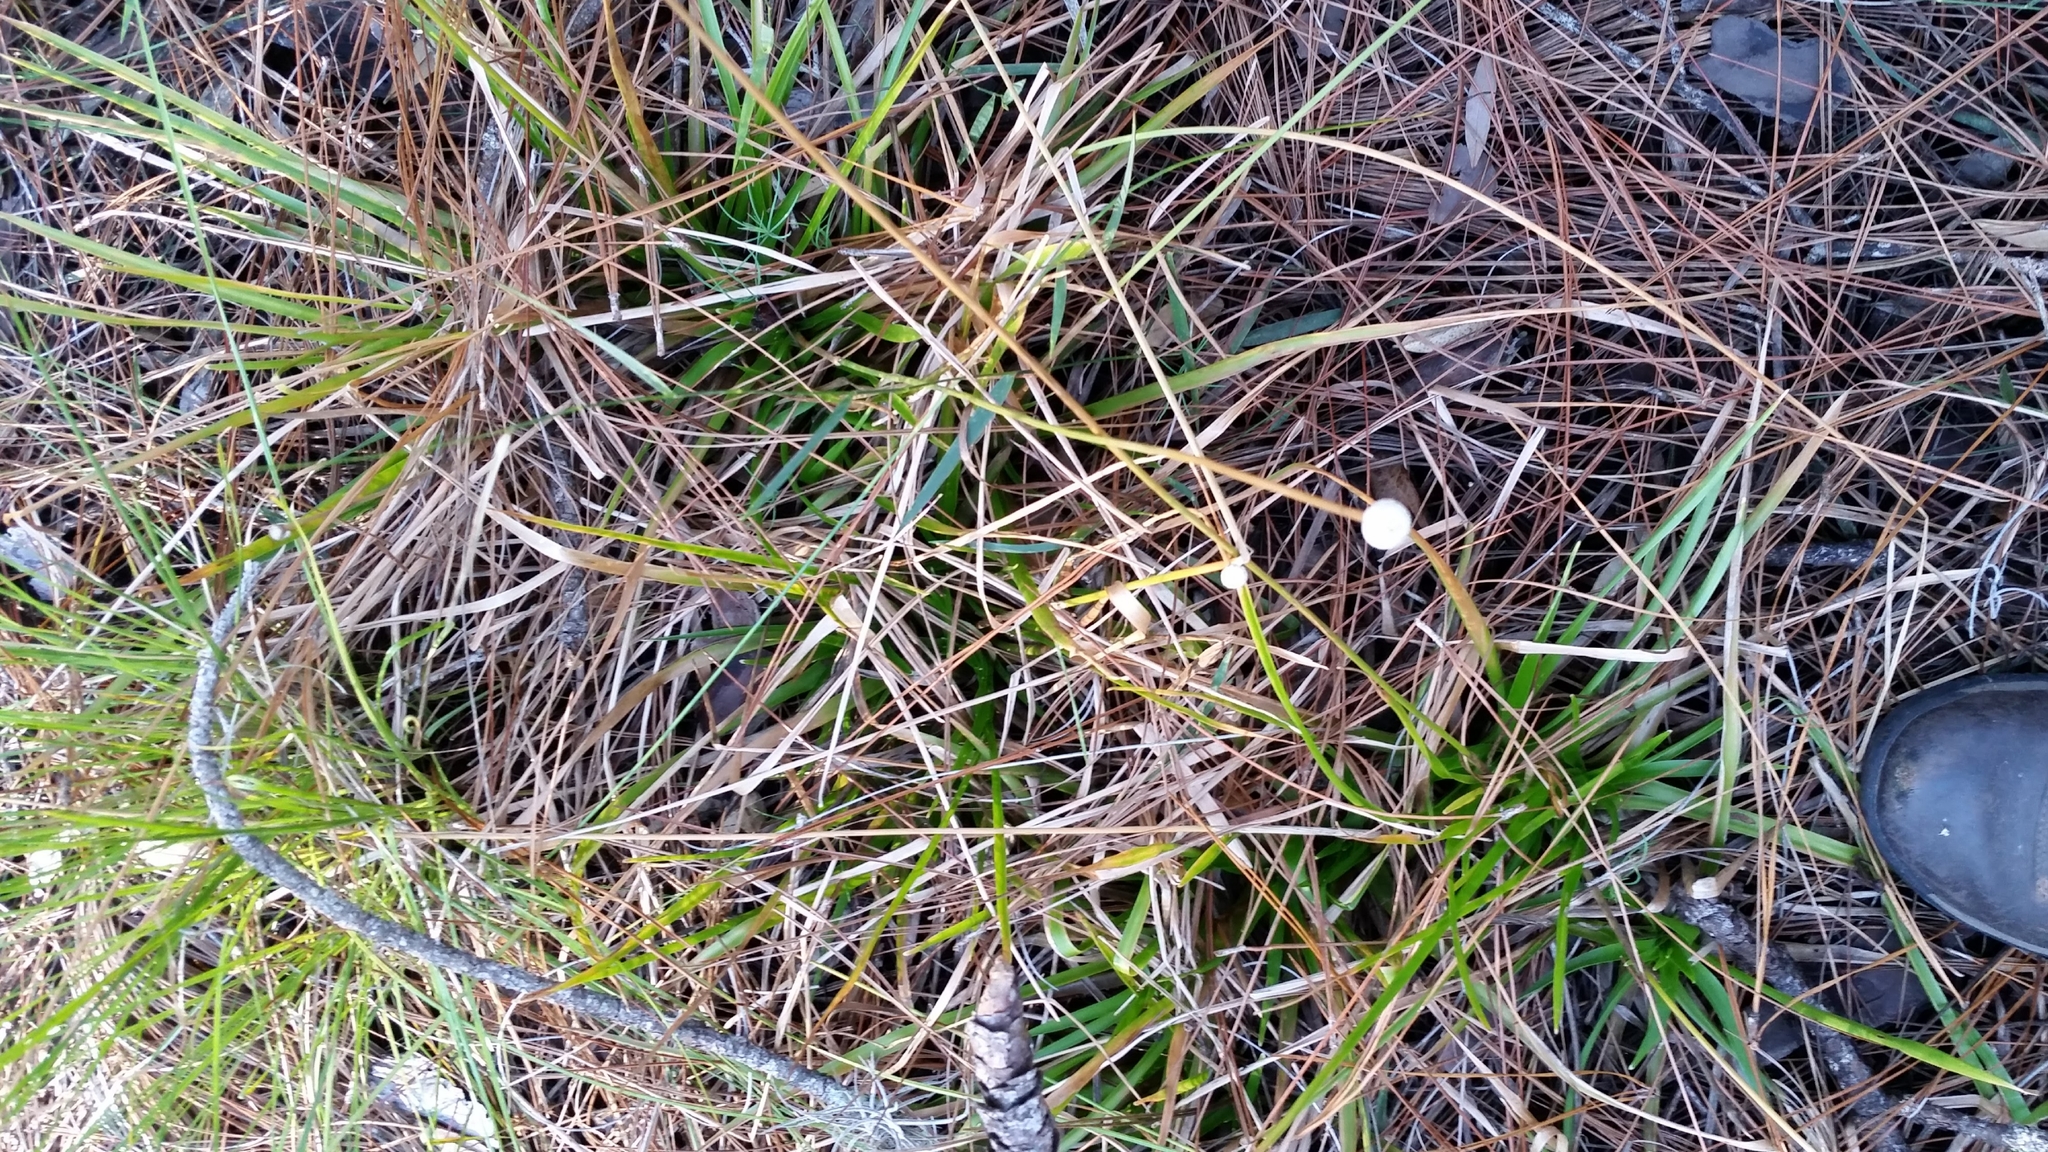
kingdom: Plantae
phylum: Tracheophyta
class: Liliopsida
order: Poales
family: Eriocaulaceae
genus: Eriocaulon
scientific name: Eriocaulon decangulare
